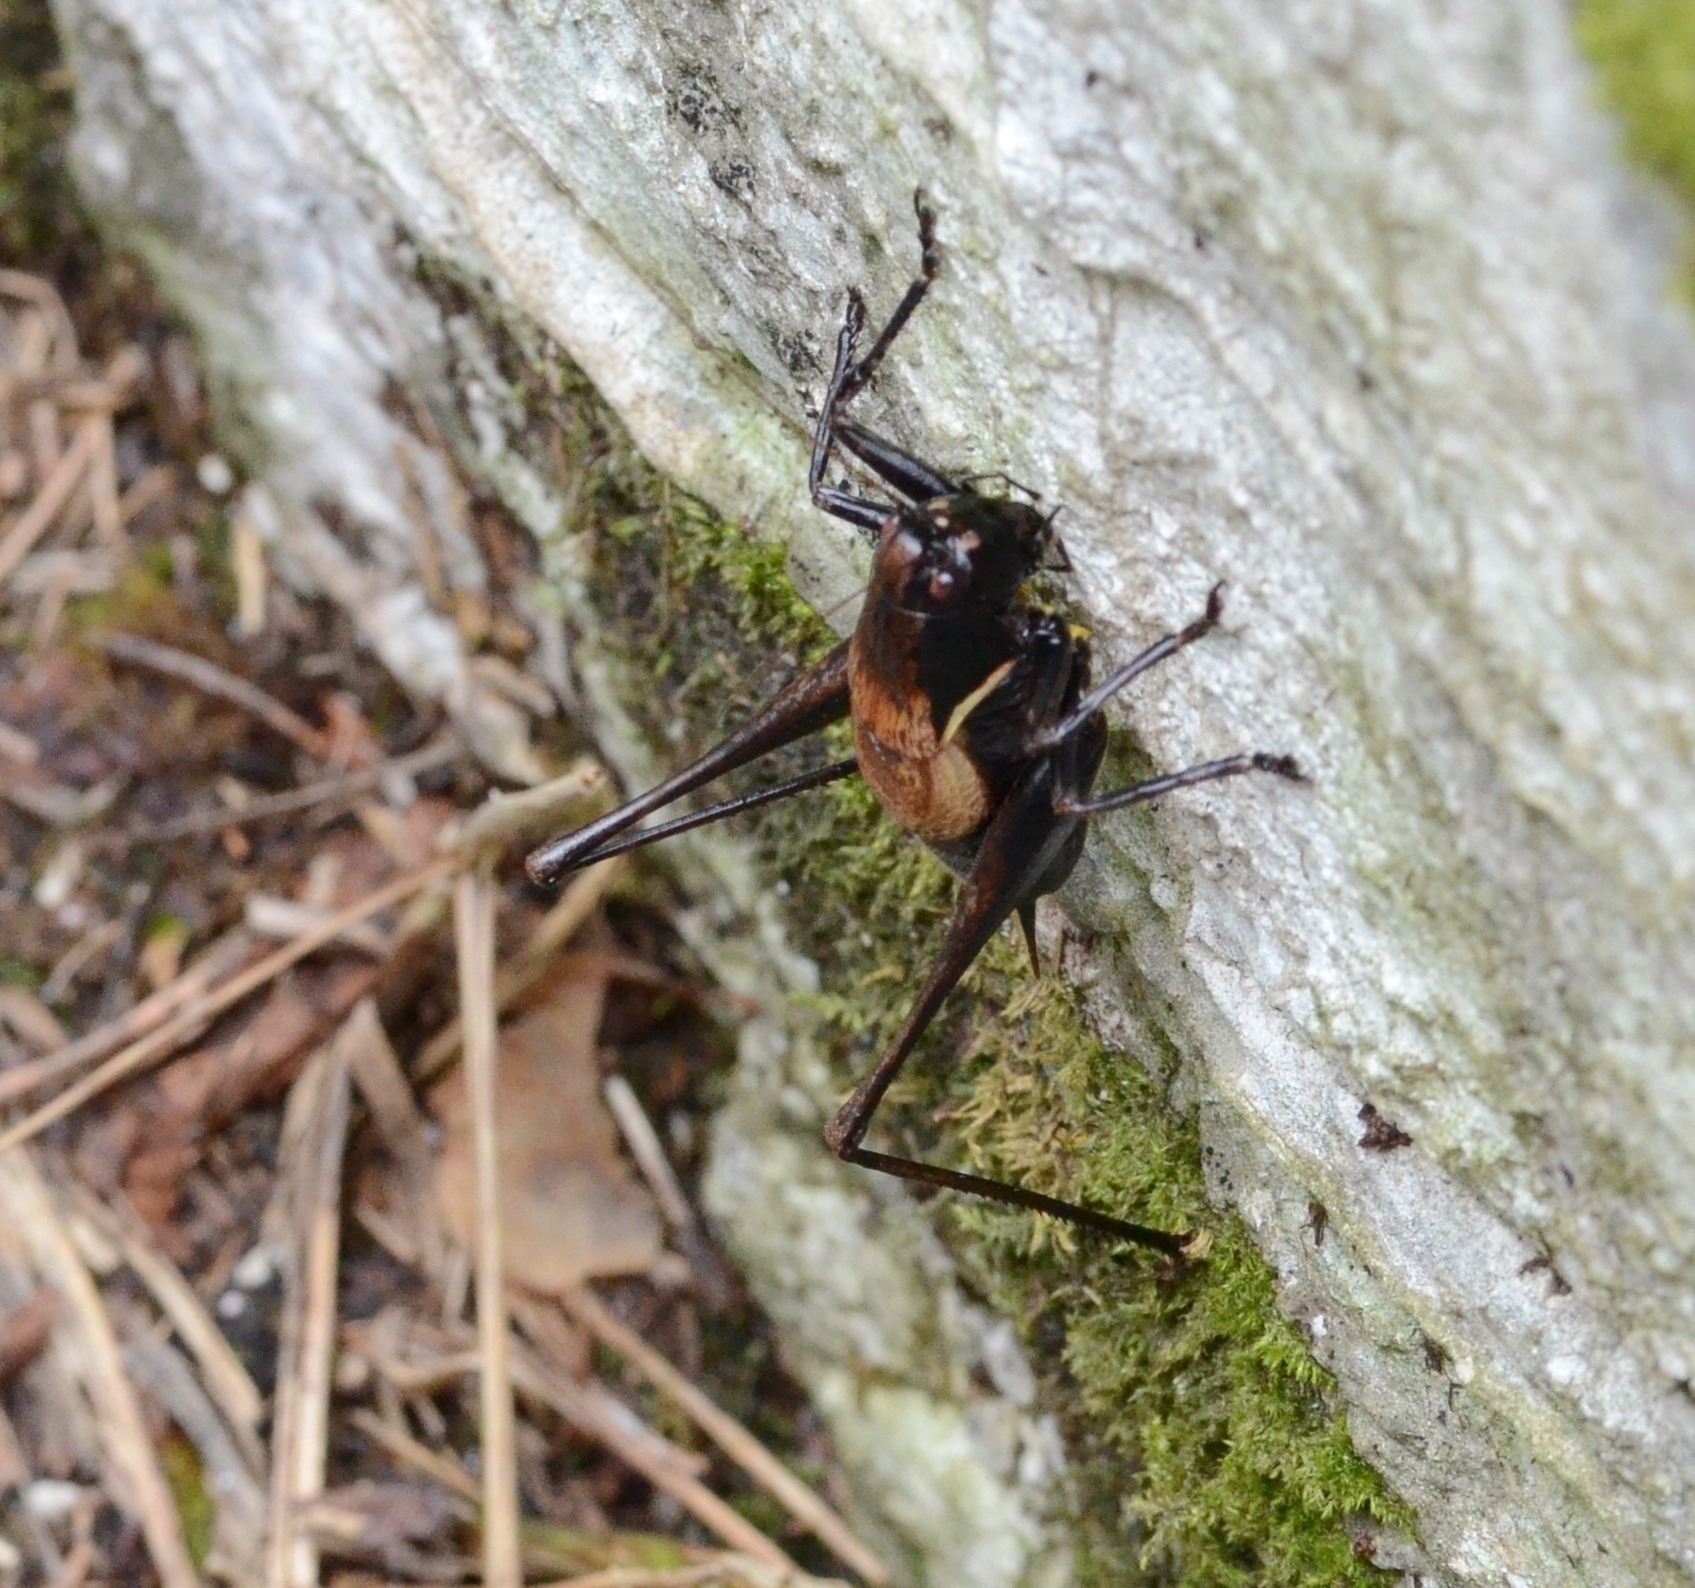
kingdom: Animalia
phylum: Arthropoda
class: Insecta
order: Orthoptera
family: Tettigoniidae
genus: Pholidoptera
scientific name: Pholidoptera aptera
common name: Alpine dark bush-cricket
